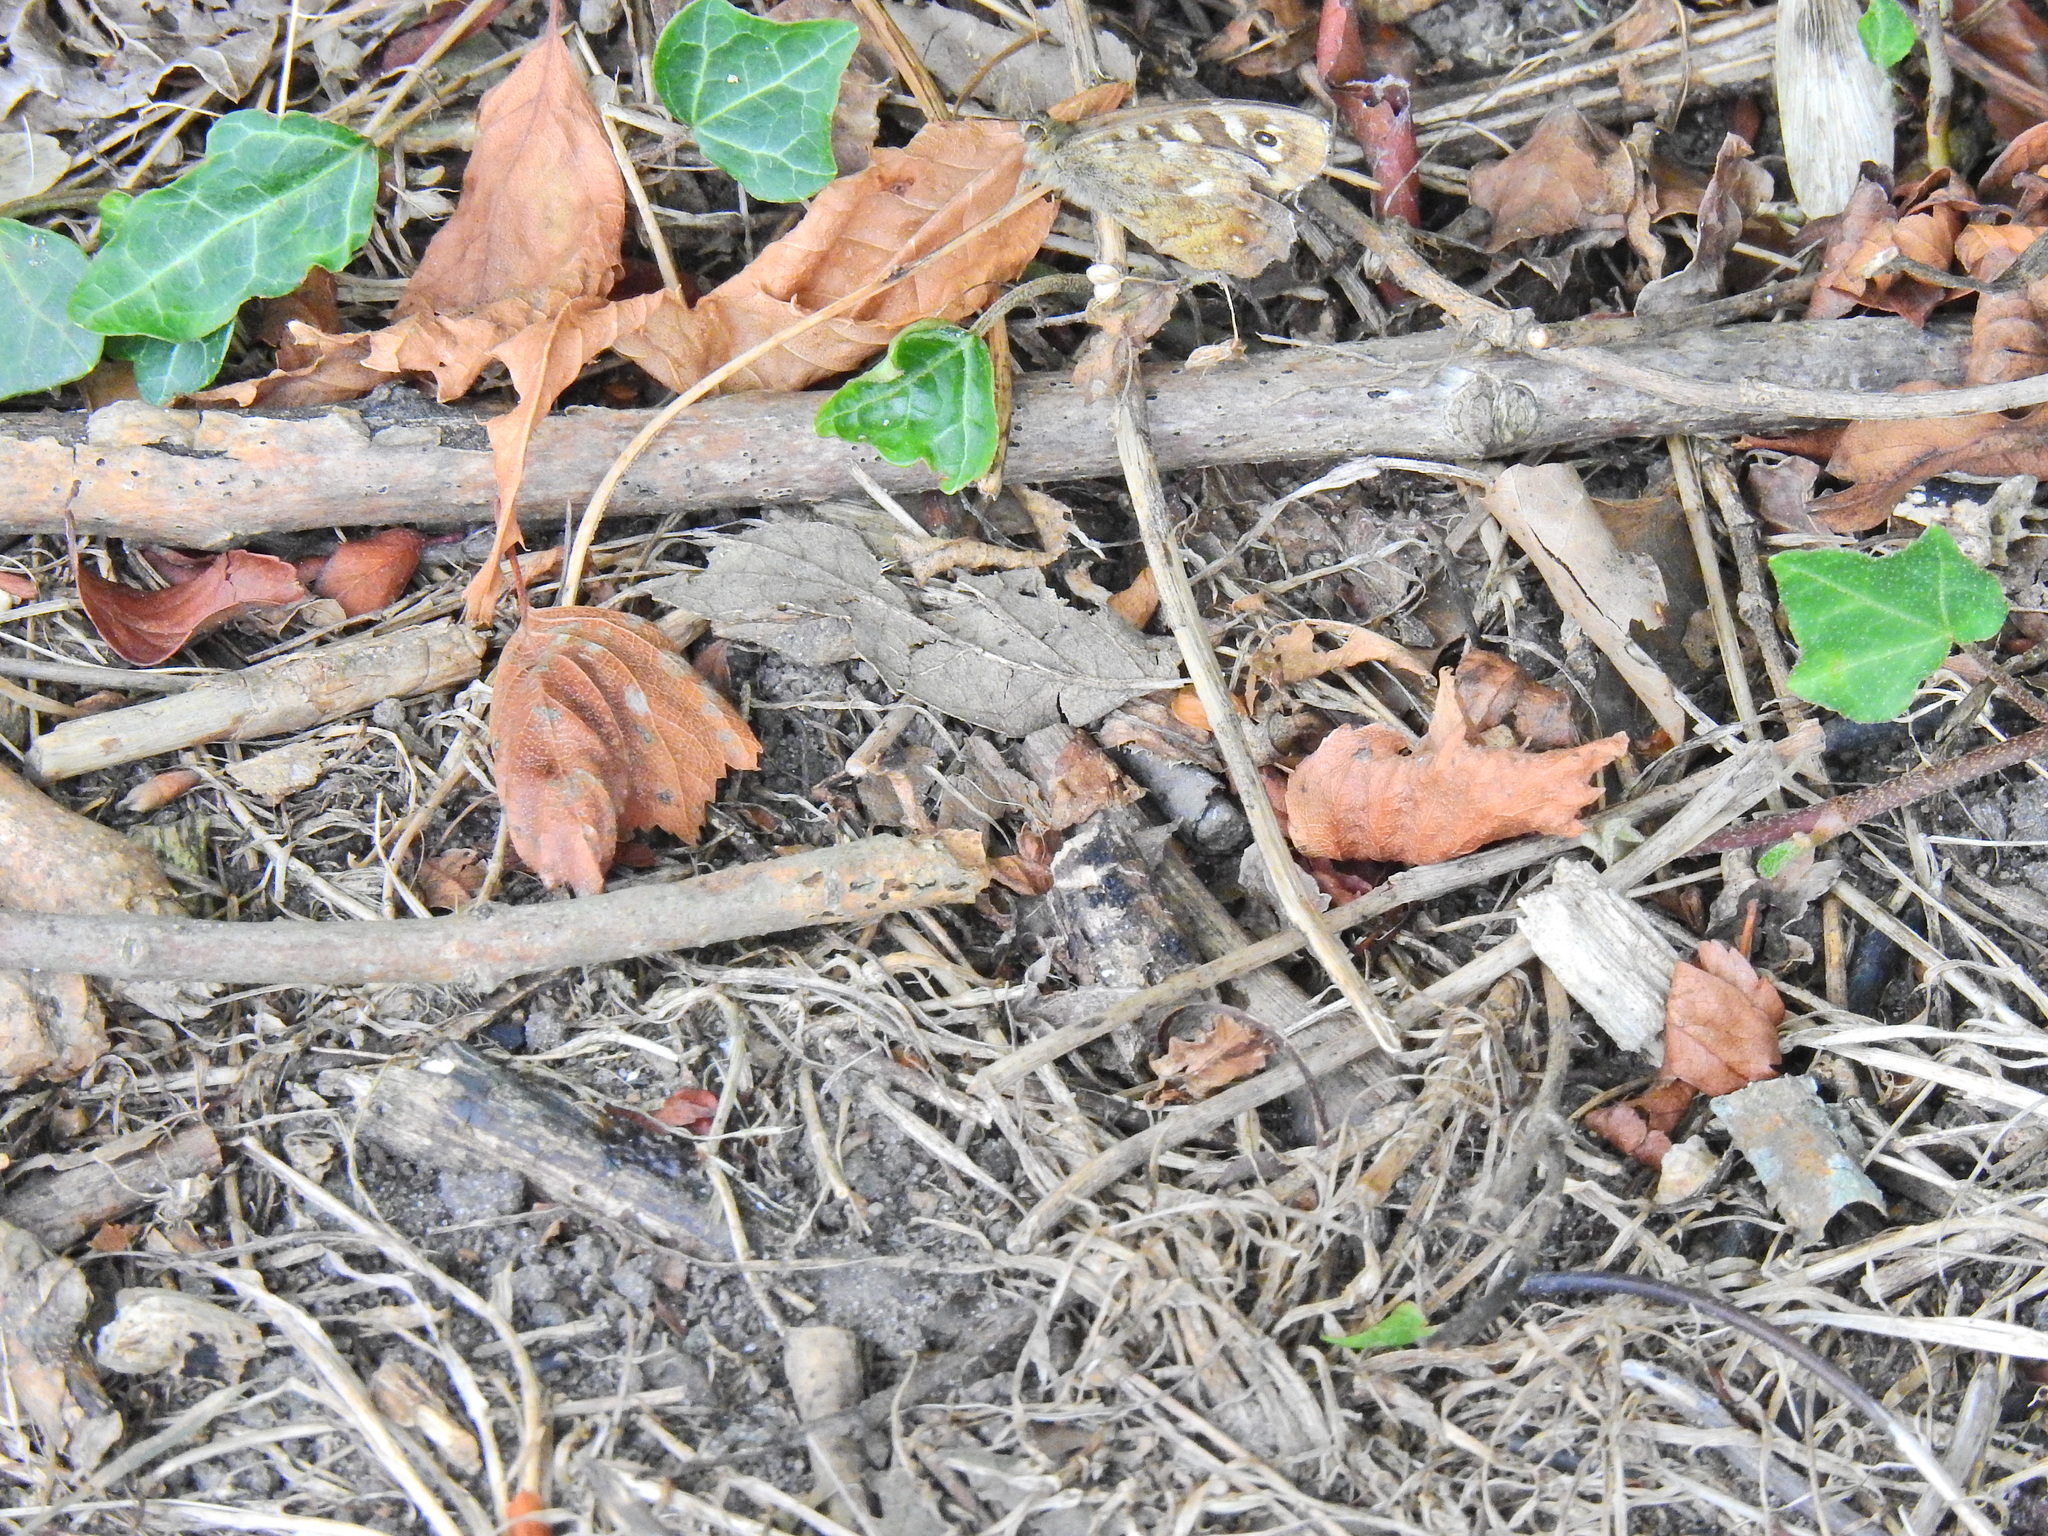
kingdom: Animalia
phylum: Arthropoda
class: Insecta
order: Lepidoptera
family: Nymphalidae
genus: Pararge
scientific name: Pararge aegeria
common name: Speckled wood
